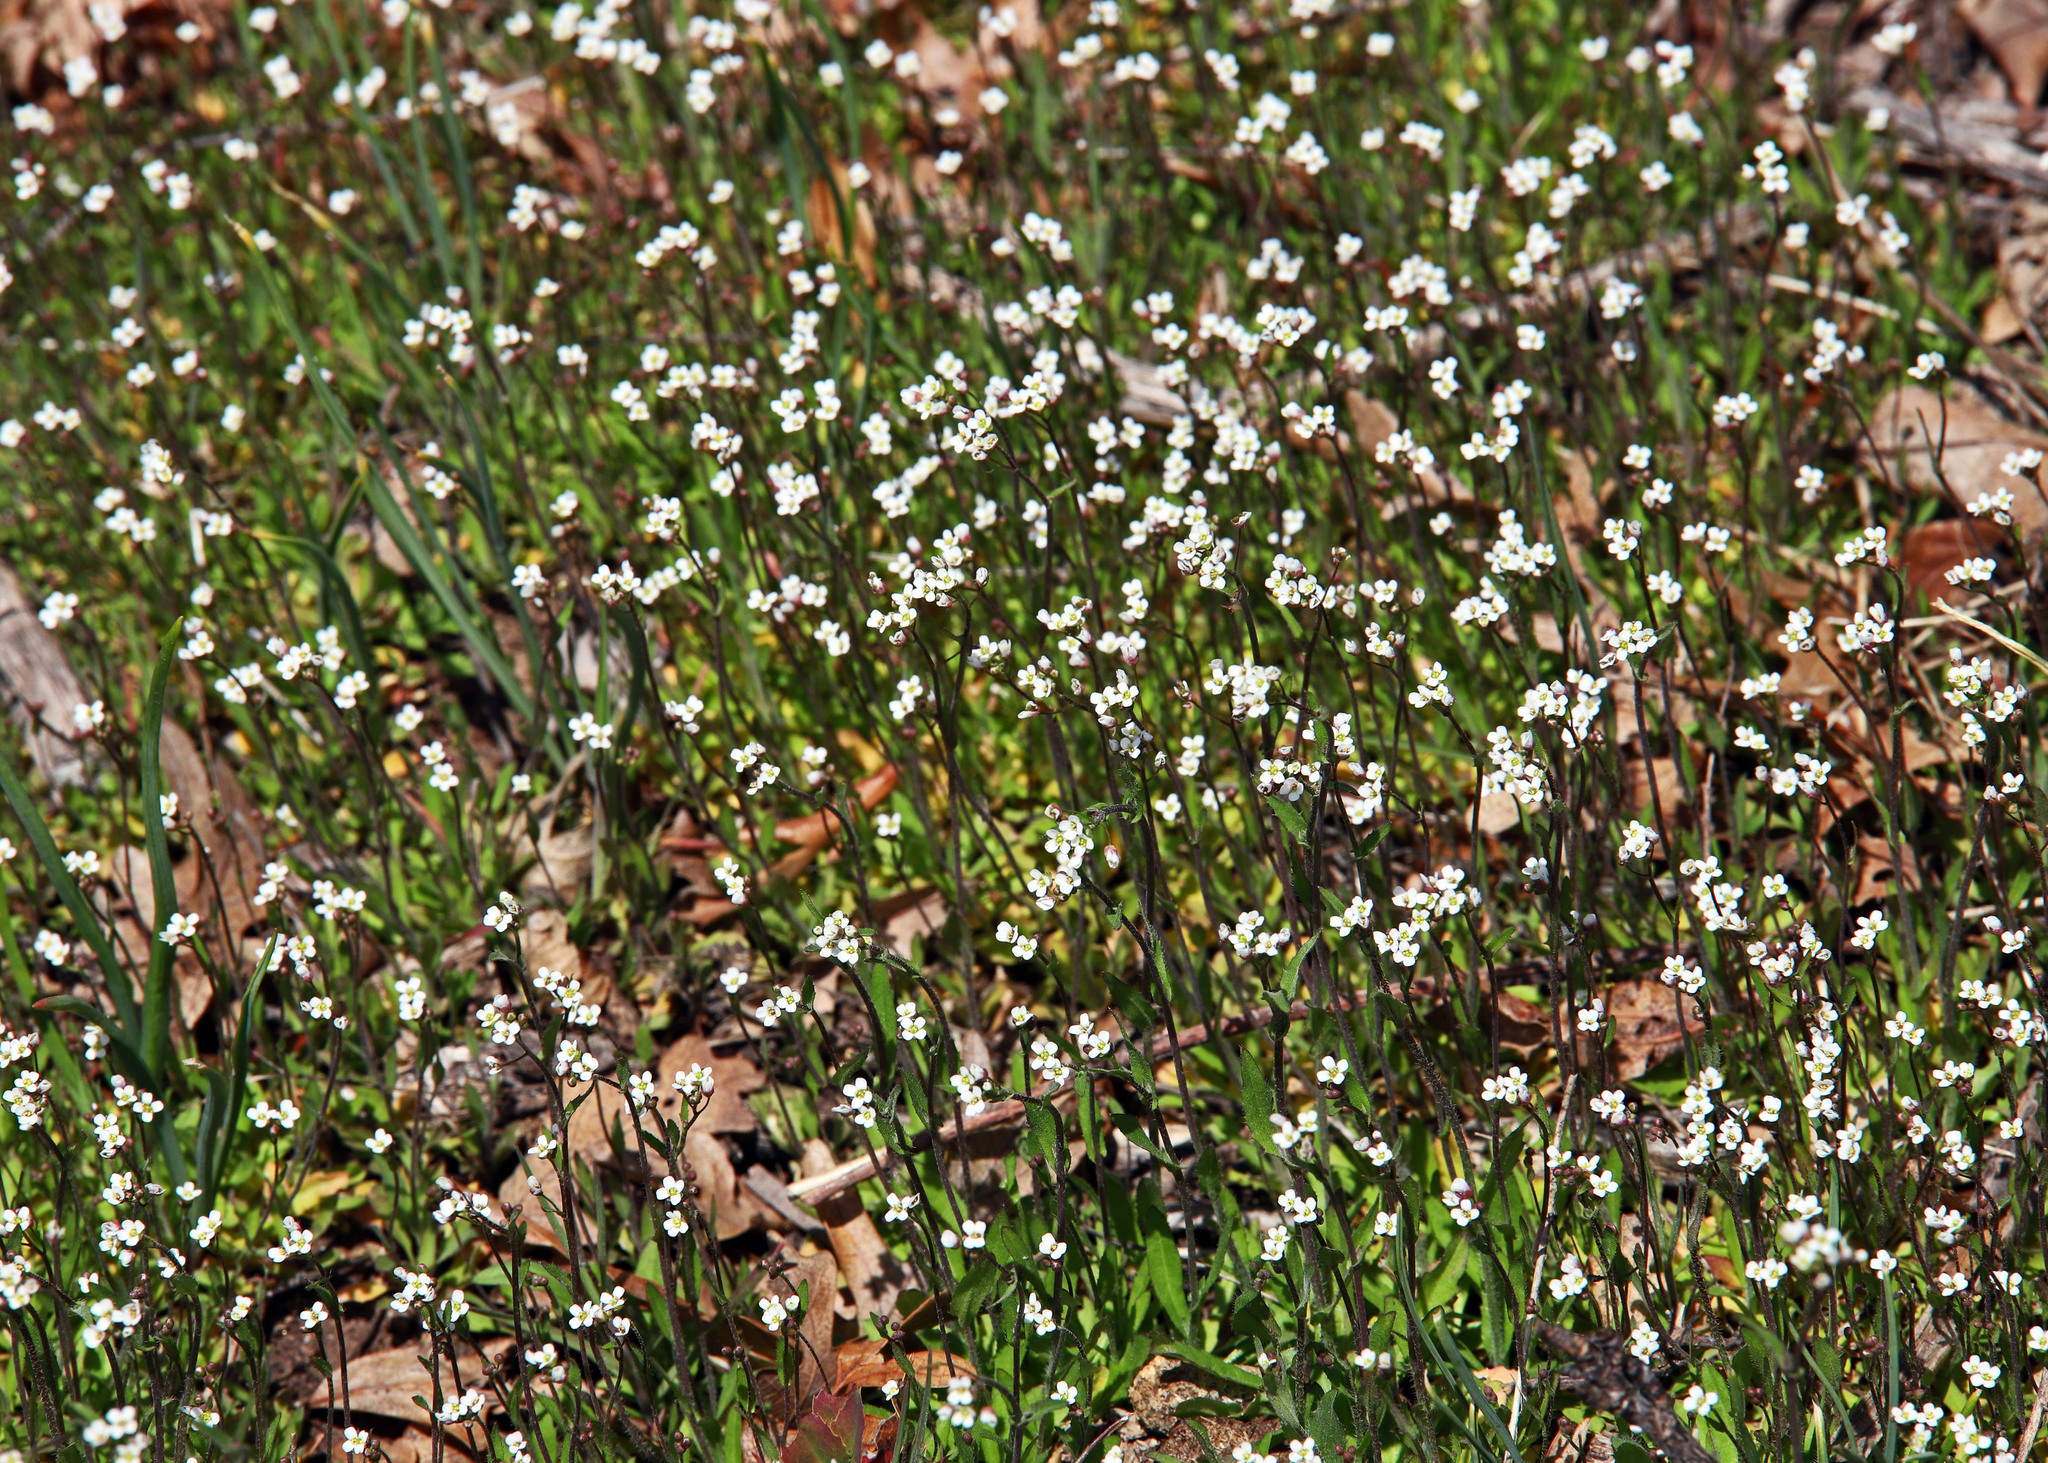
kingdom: Plantae
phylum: Tracheophyta
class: Magnoliopsida
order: Brassicales
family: Brassicaceae
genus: Capsella
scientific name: Capsella bursa-pastoris
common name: Shepherd's purse
